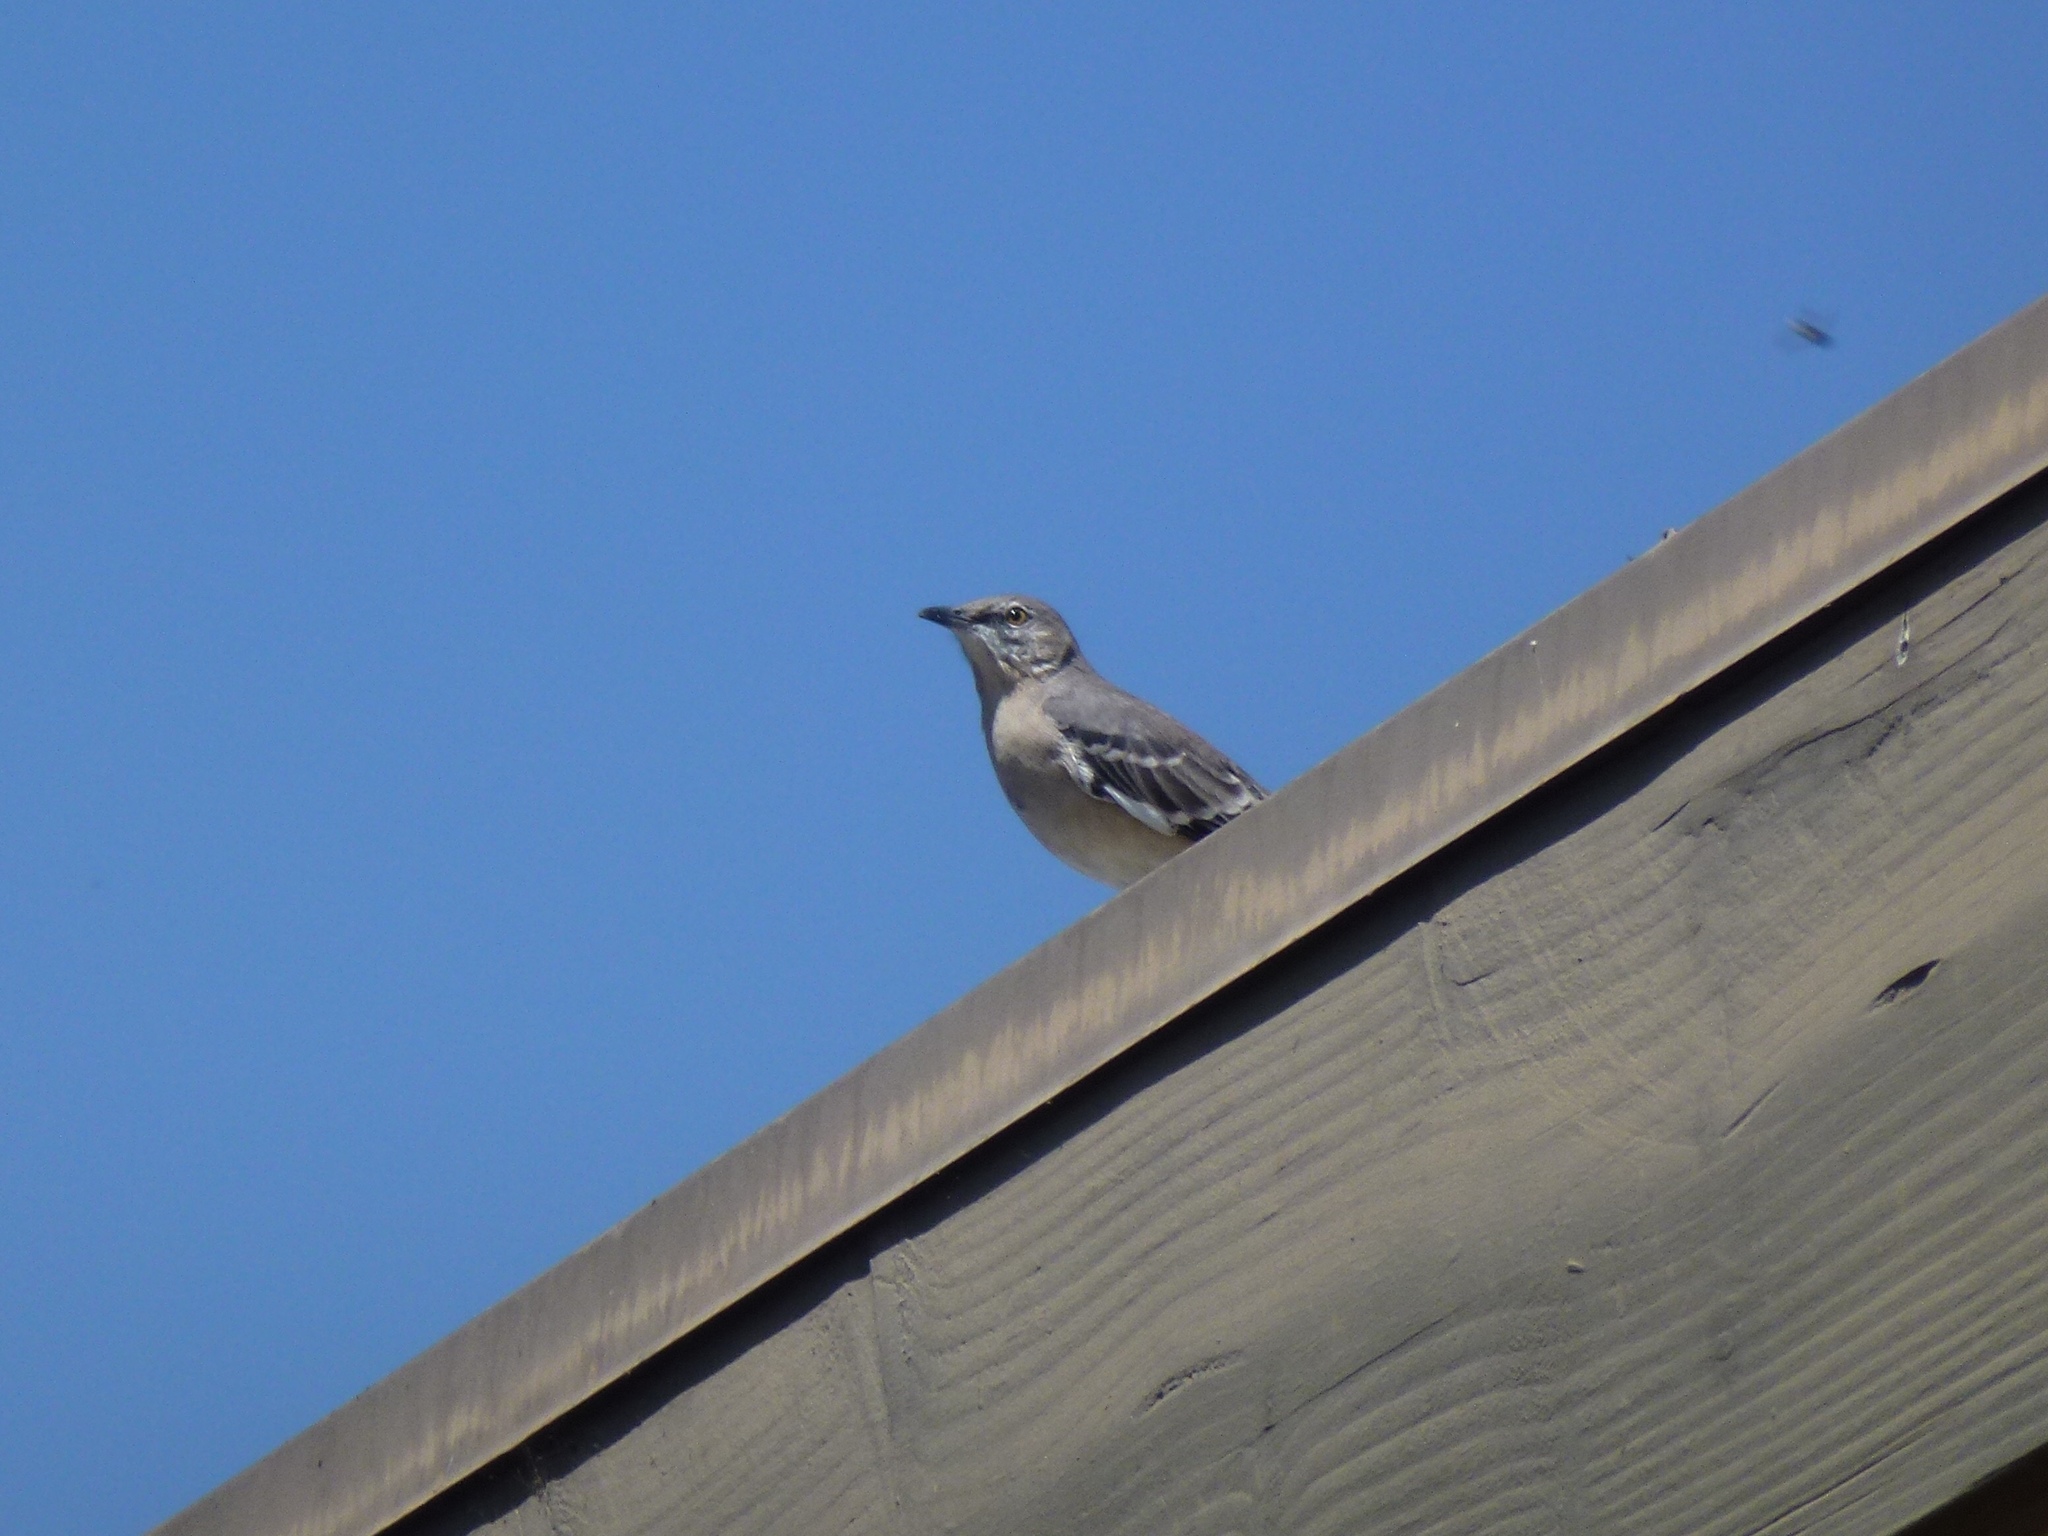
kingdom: Animalia
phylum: Chordata
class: Aves
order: Passeriformes
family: Mimidae
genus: Mimus
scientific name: Mimus polyglottos
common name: Northern mockingbird
